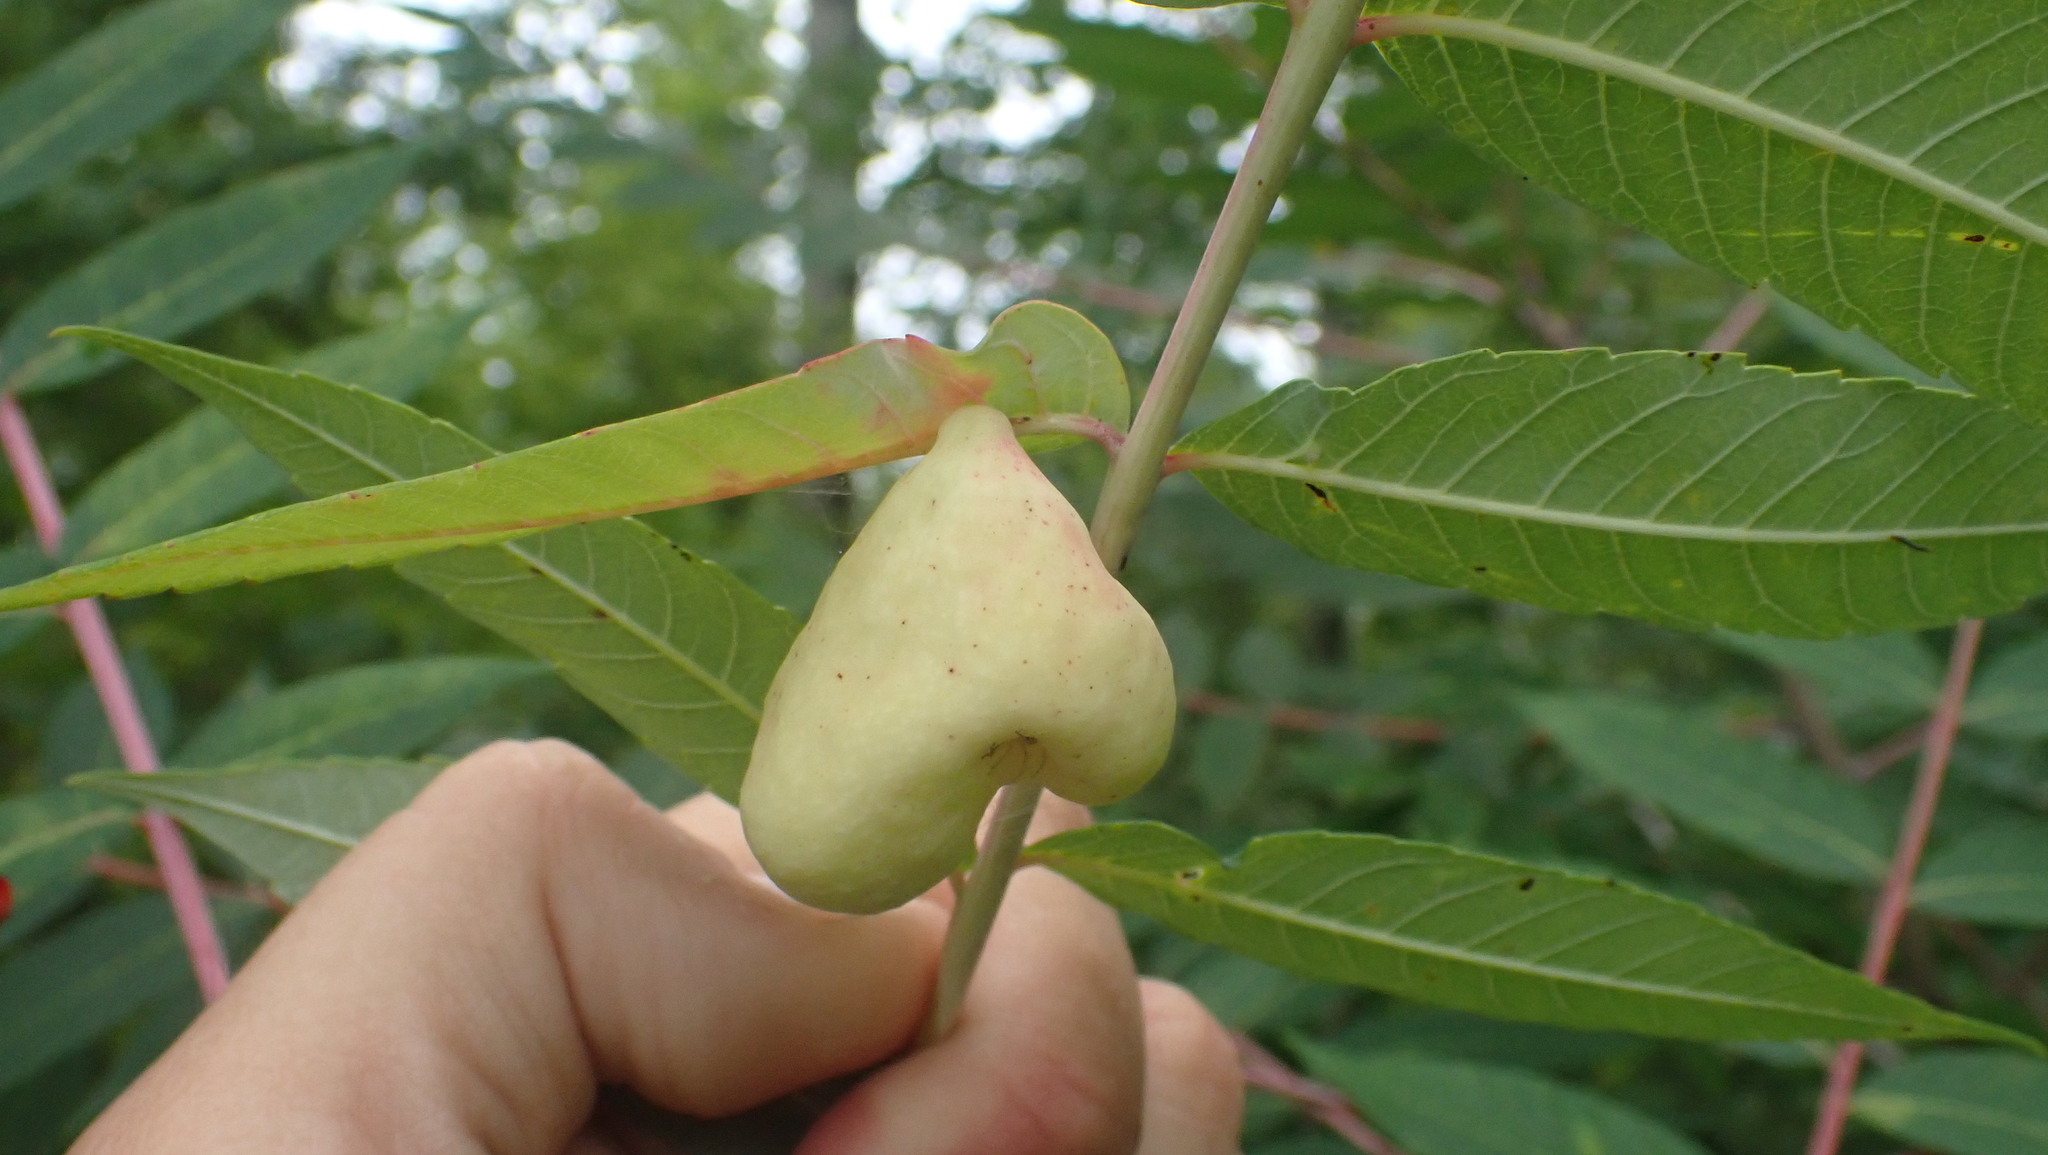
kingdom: Animalia
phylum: Arthropoda
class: Insecta
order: Hemiptera
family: Aphididae
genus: Melaphis
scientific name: Melaphis rhois
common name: Sumac gall aphid
